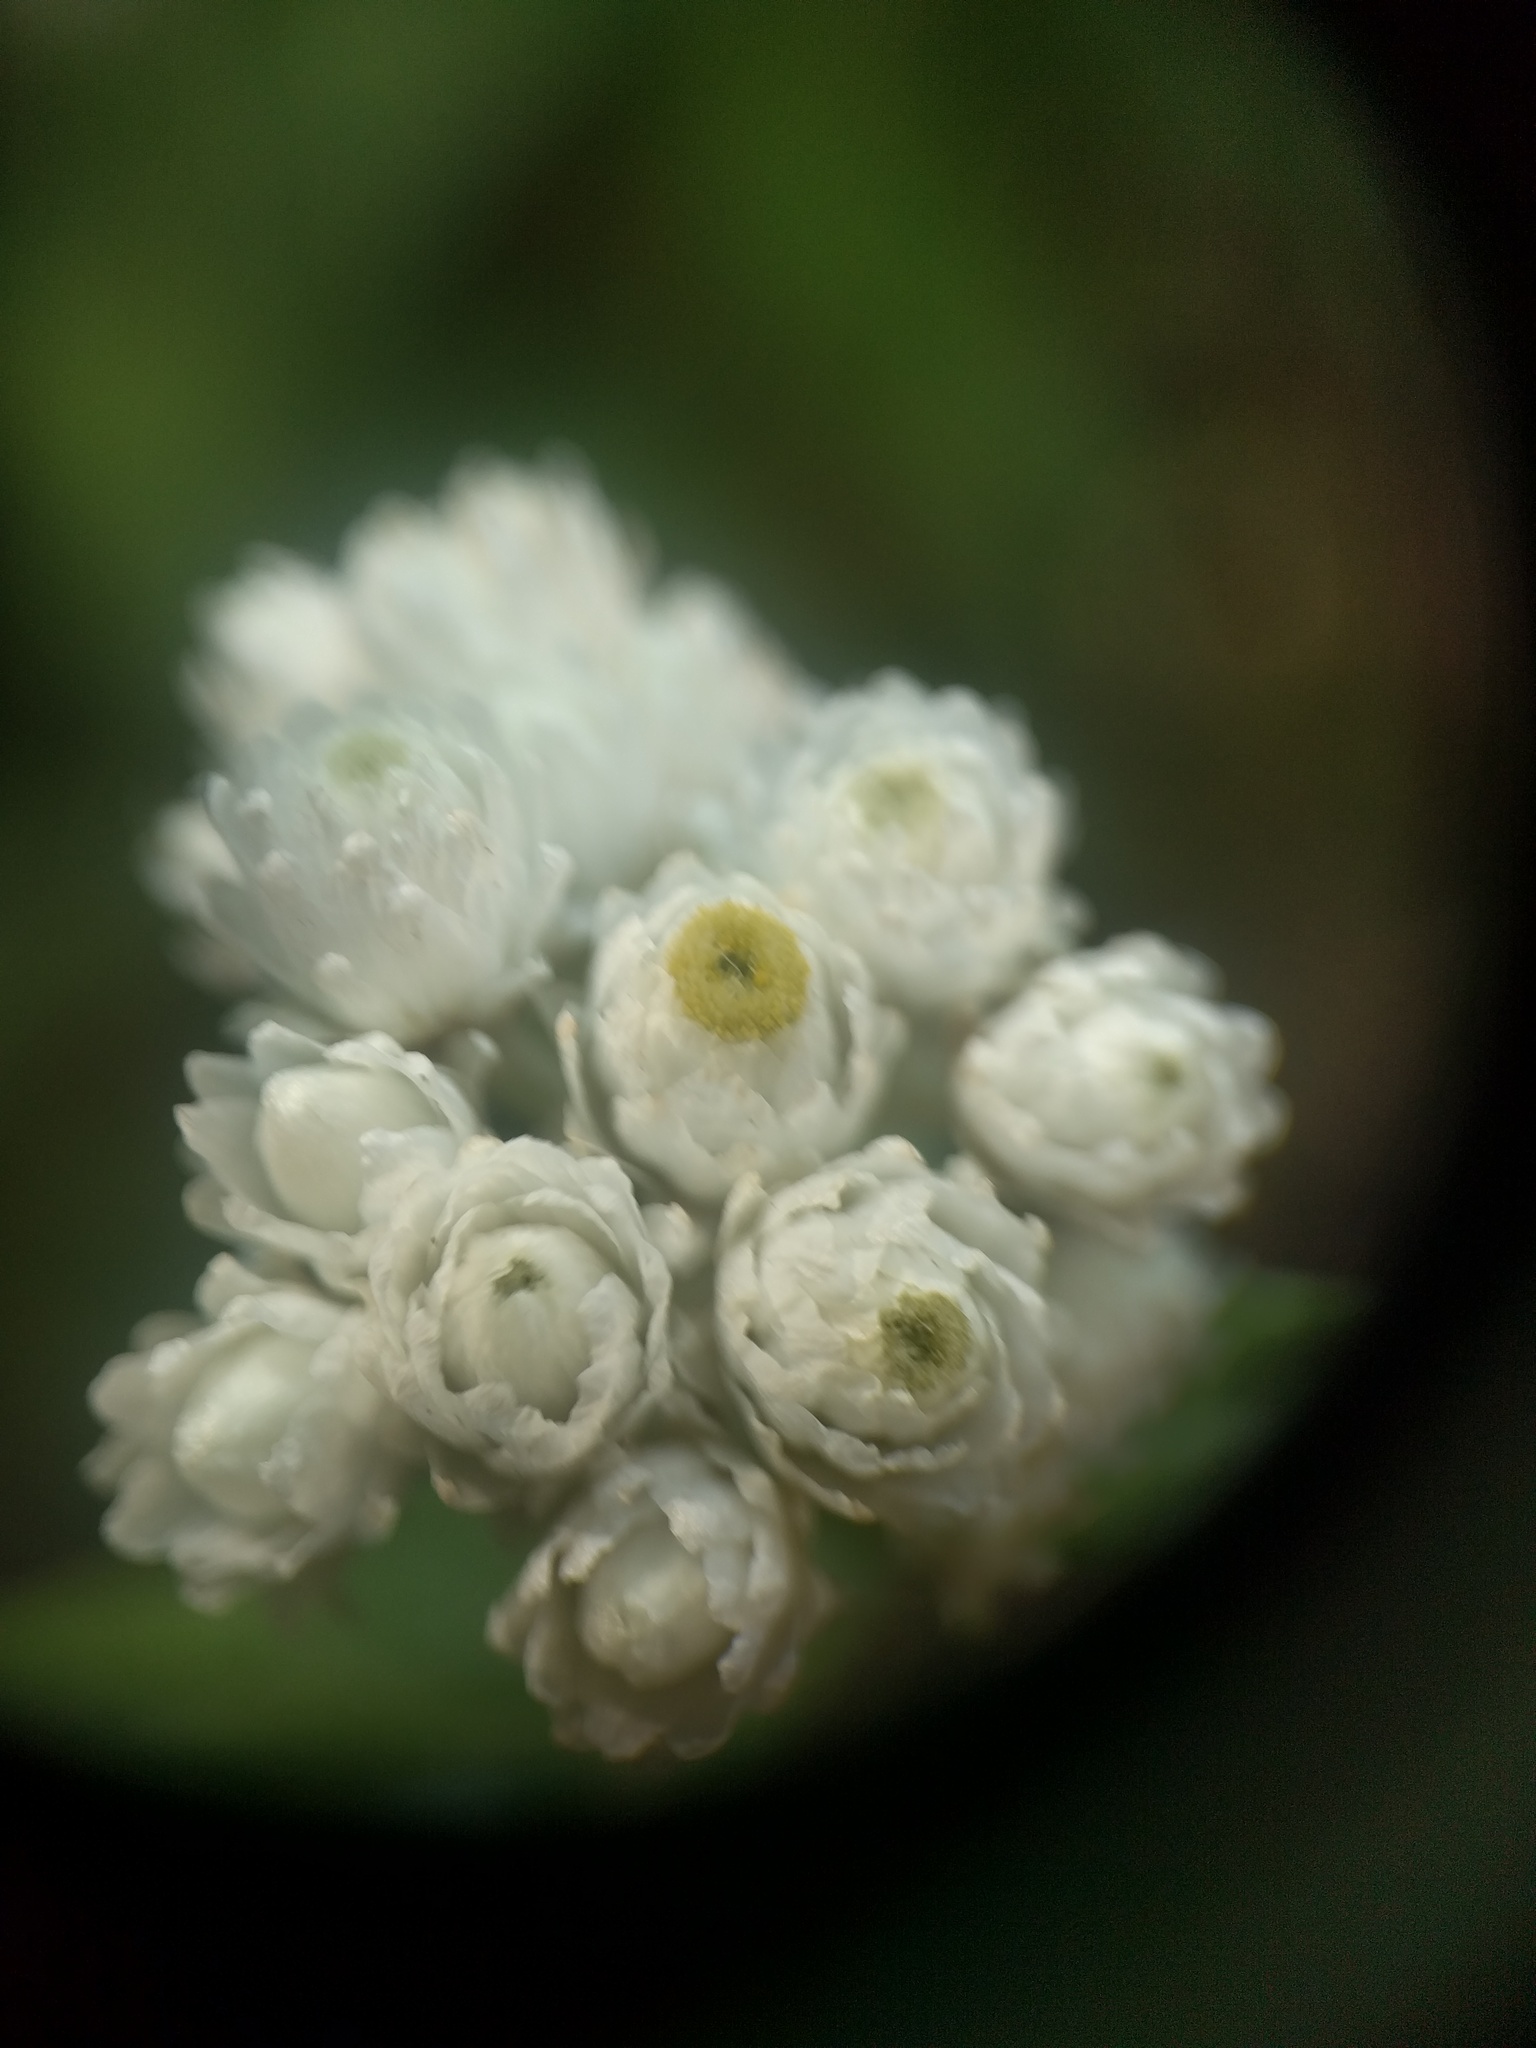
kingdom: Plantae
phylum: Tracheophyta
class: Magnoliopsida
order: Asterales
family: Asteraceae
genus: Anaphalis
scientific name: Anaphalis margaritacea
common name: Pearly everlasting
